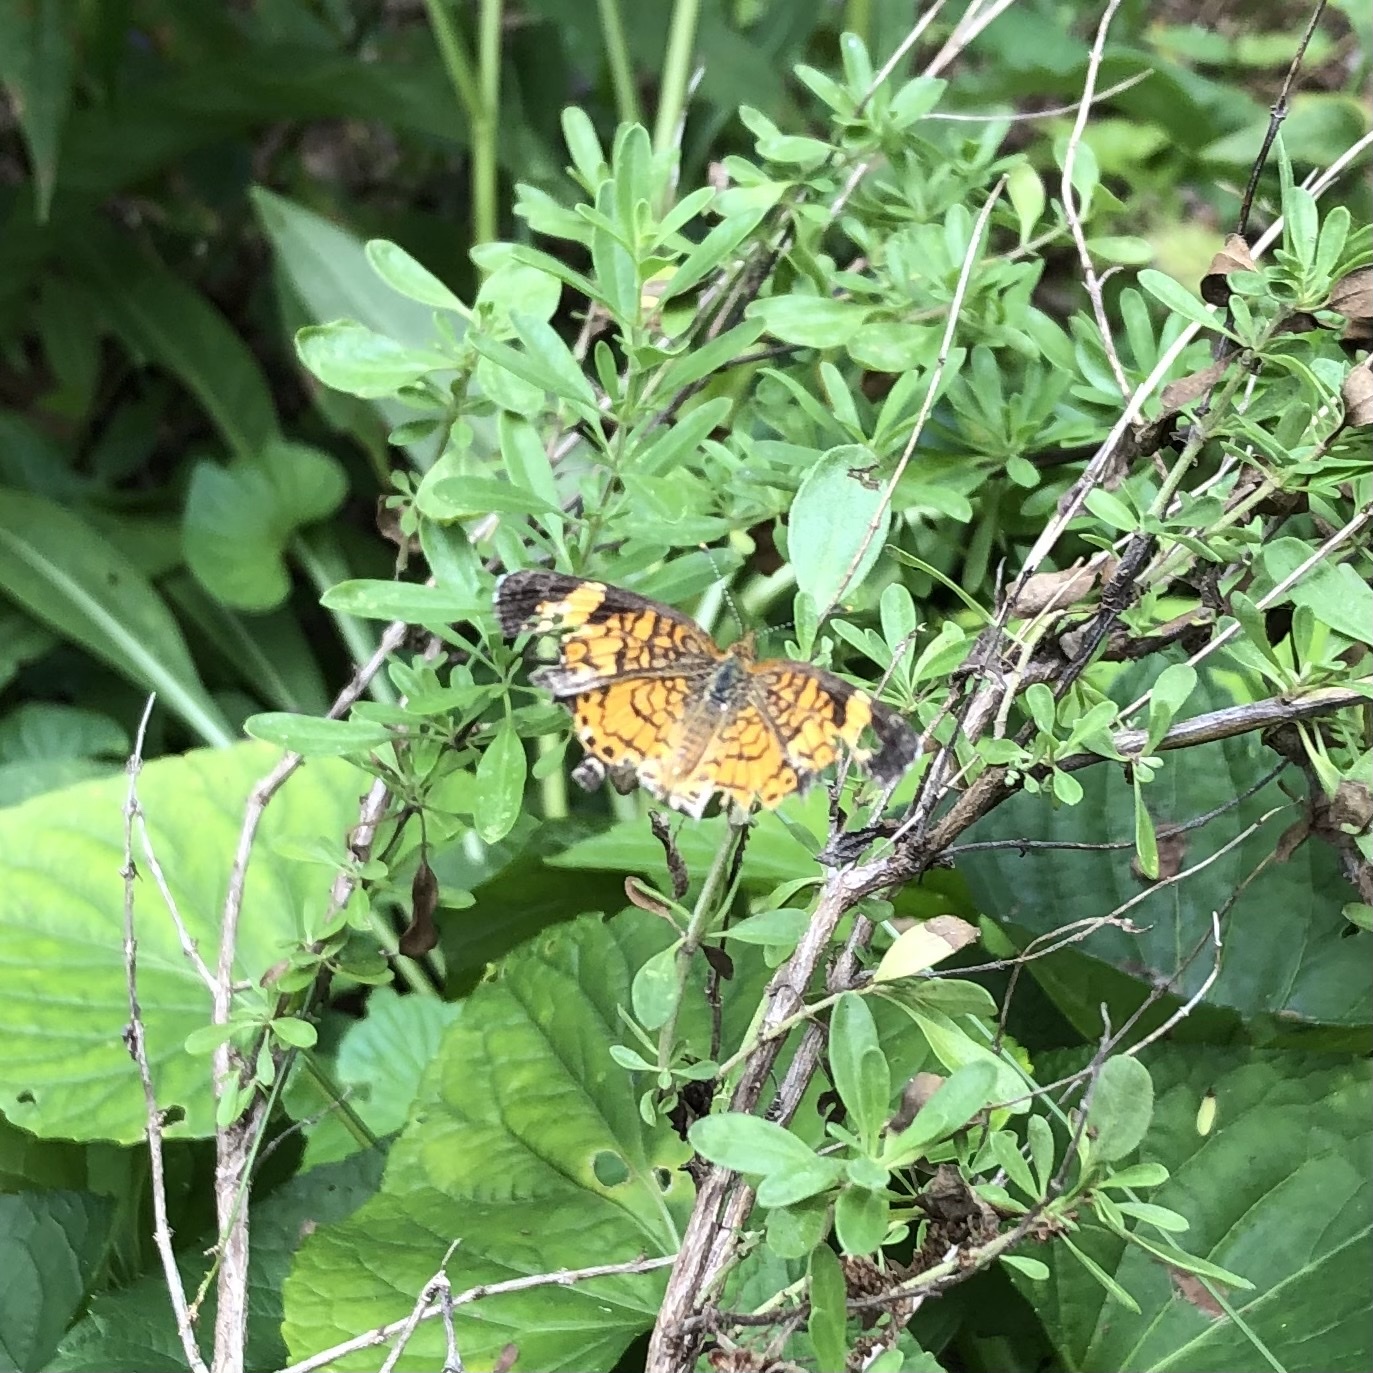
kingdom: Animalia
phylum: Arthropoda
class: Insecta
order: Lepidoptera
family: Nymphalidae
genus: Phyciodes
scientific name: Phyciodes tharos
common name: Pearl crescent
